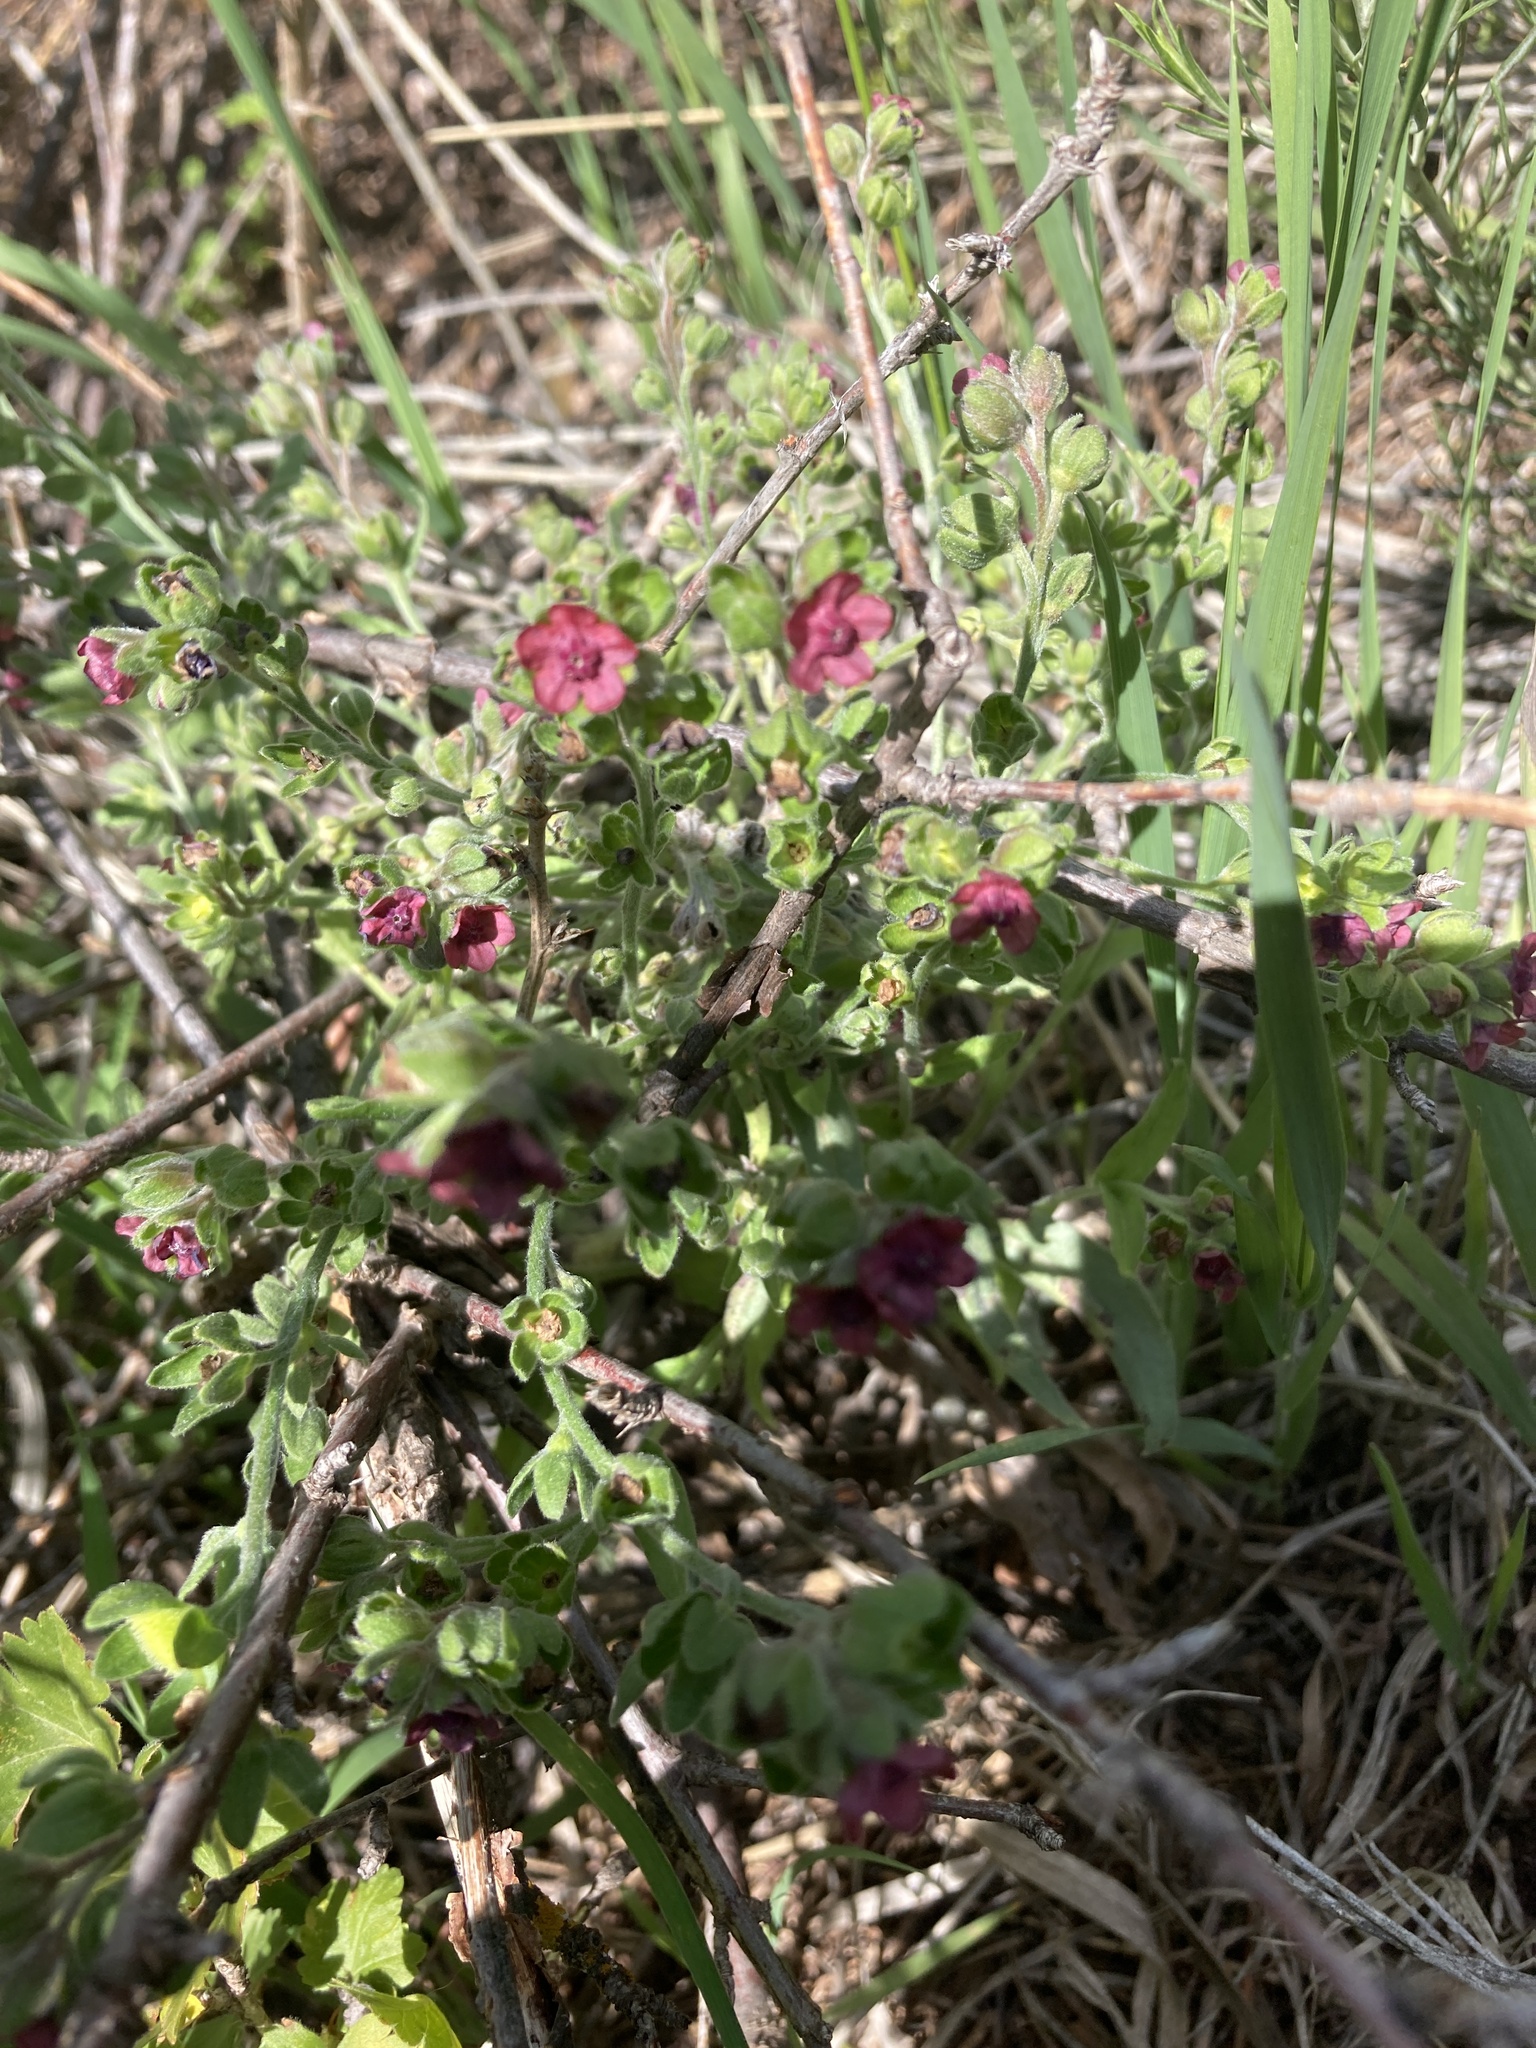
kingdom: Plantae
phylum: Tracheophyta
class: Magnoliopsida
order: Boraginales
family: Boraginaceae
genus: Cynoglossum
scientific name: Cynoglossum officinale
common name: Hound's-tongue
